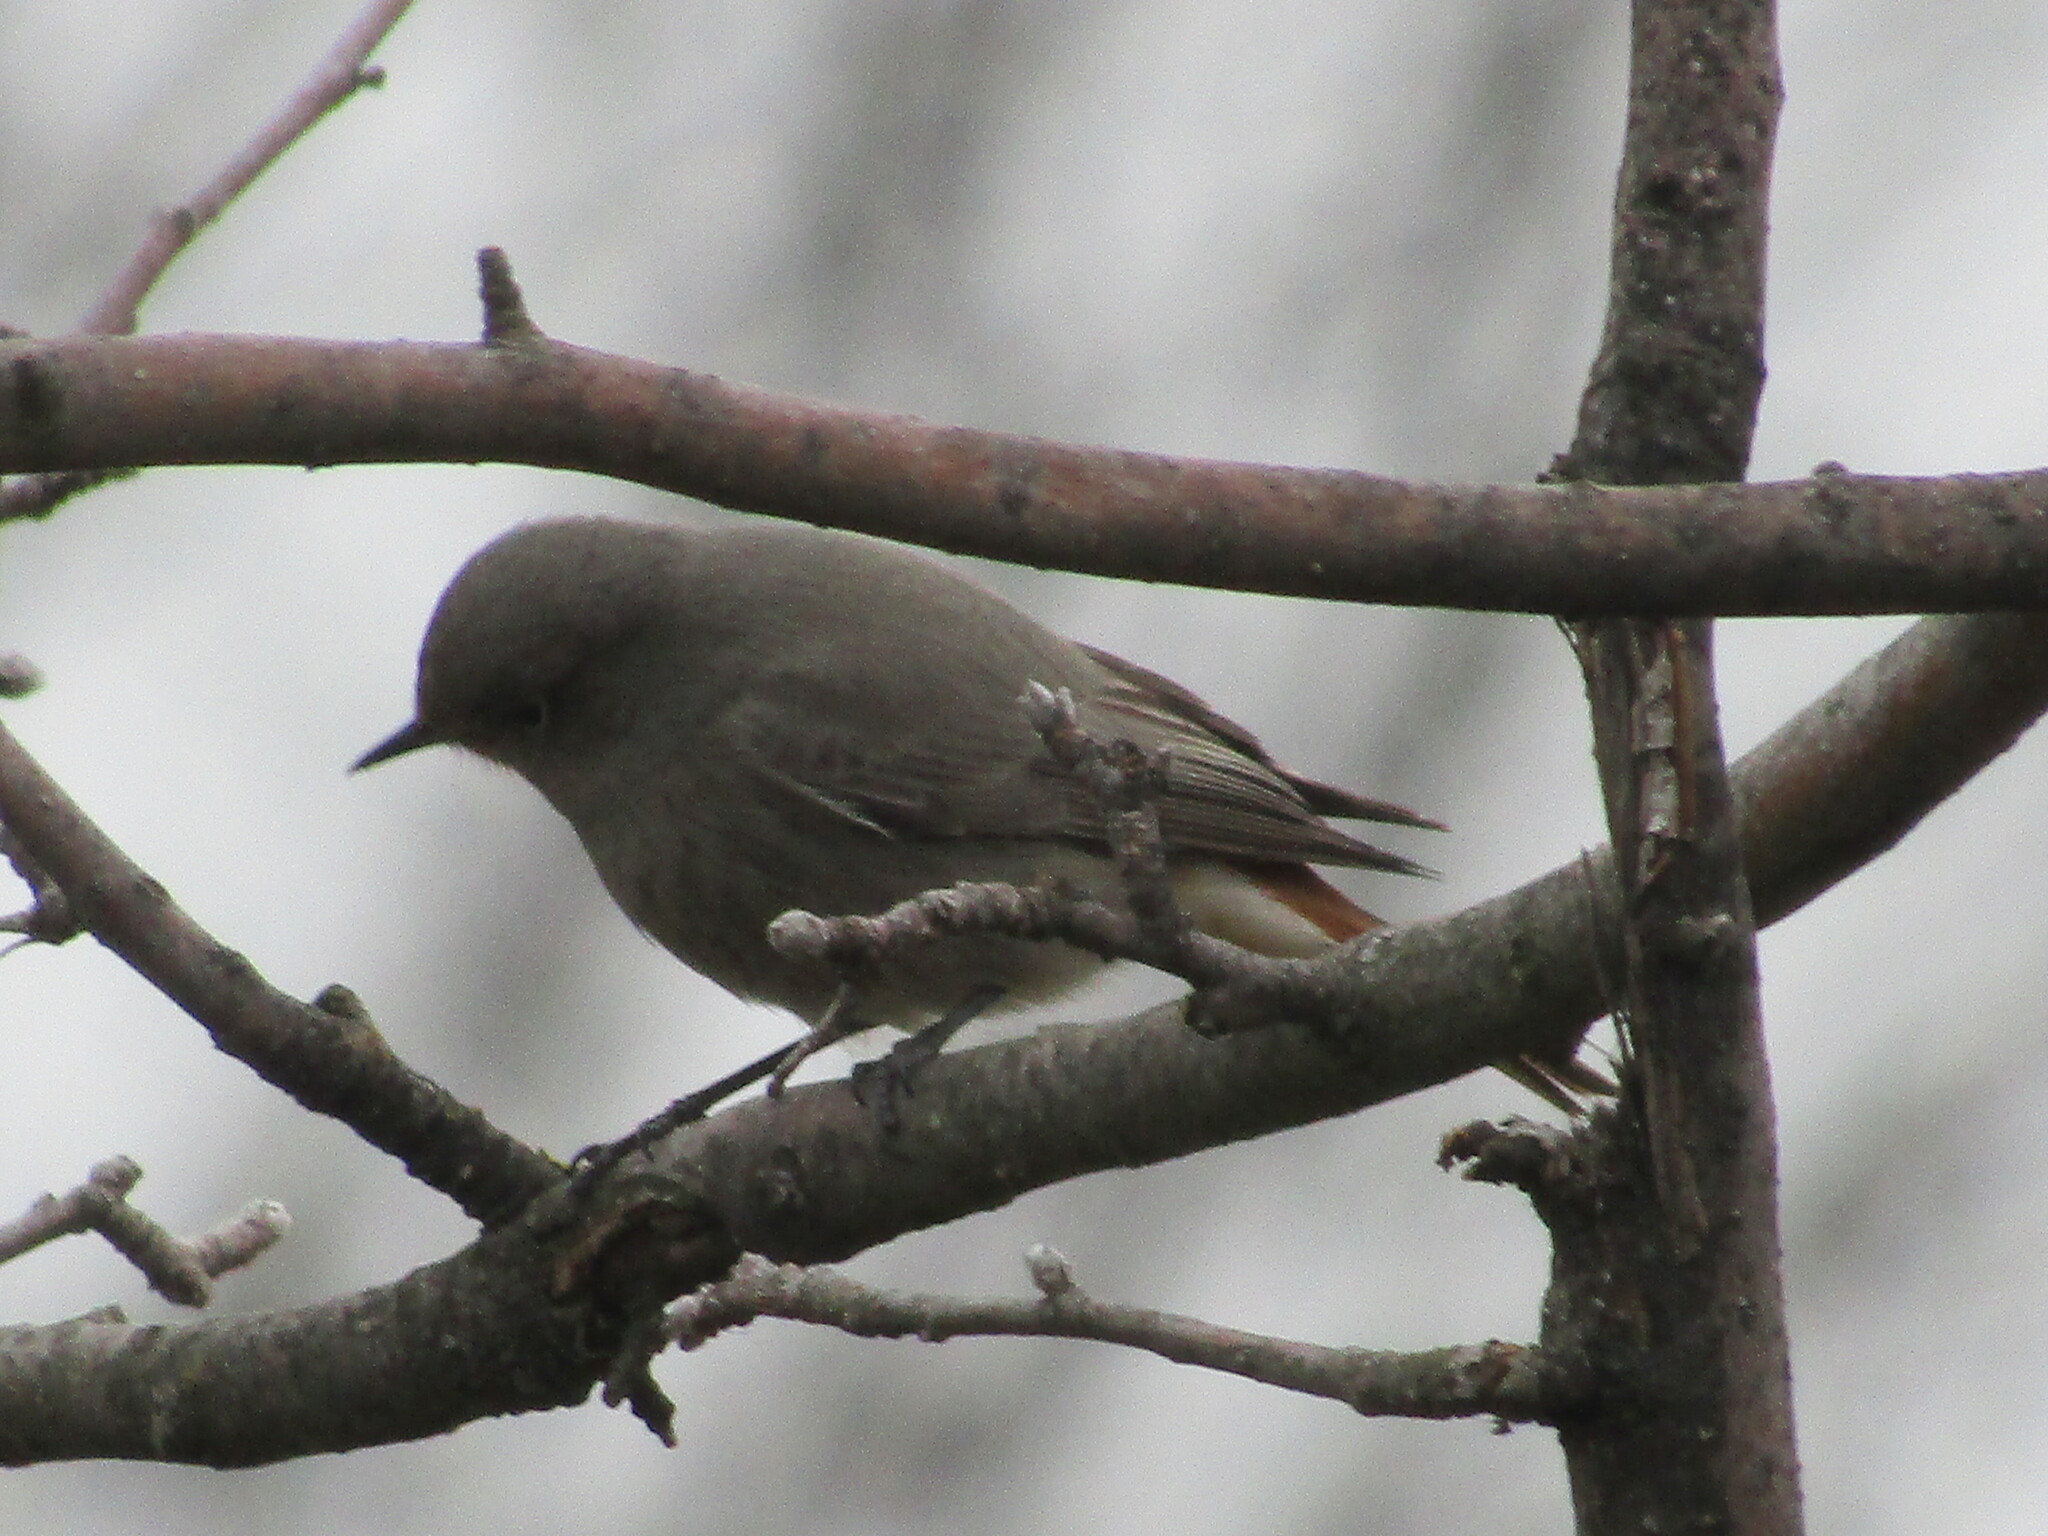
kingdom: Animalia
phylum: Chordata
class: Aves
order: Passeriformes
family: Muscicapidae
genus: Phoenicurus
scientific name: Phoenicurus ochruros
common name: Black redstart
